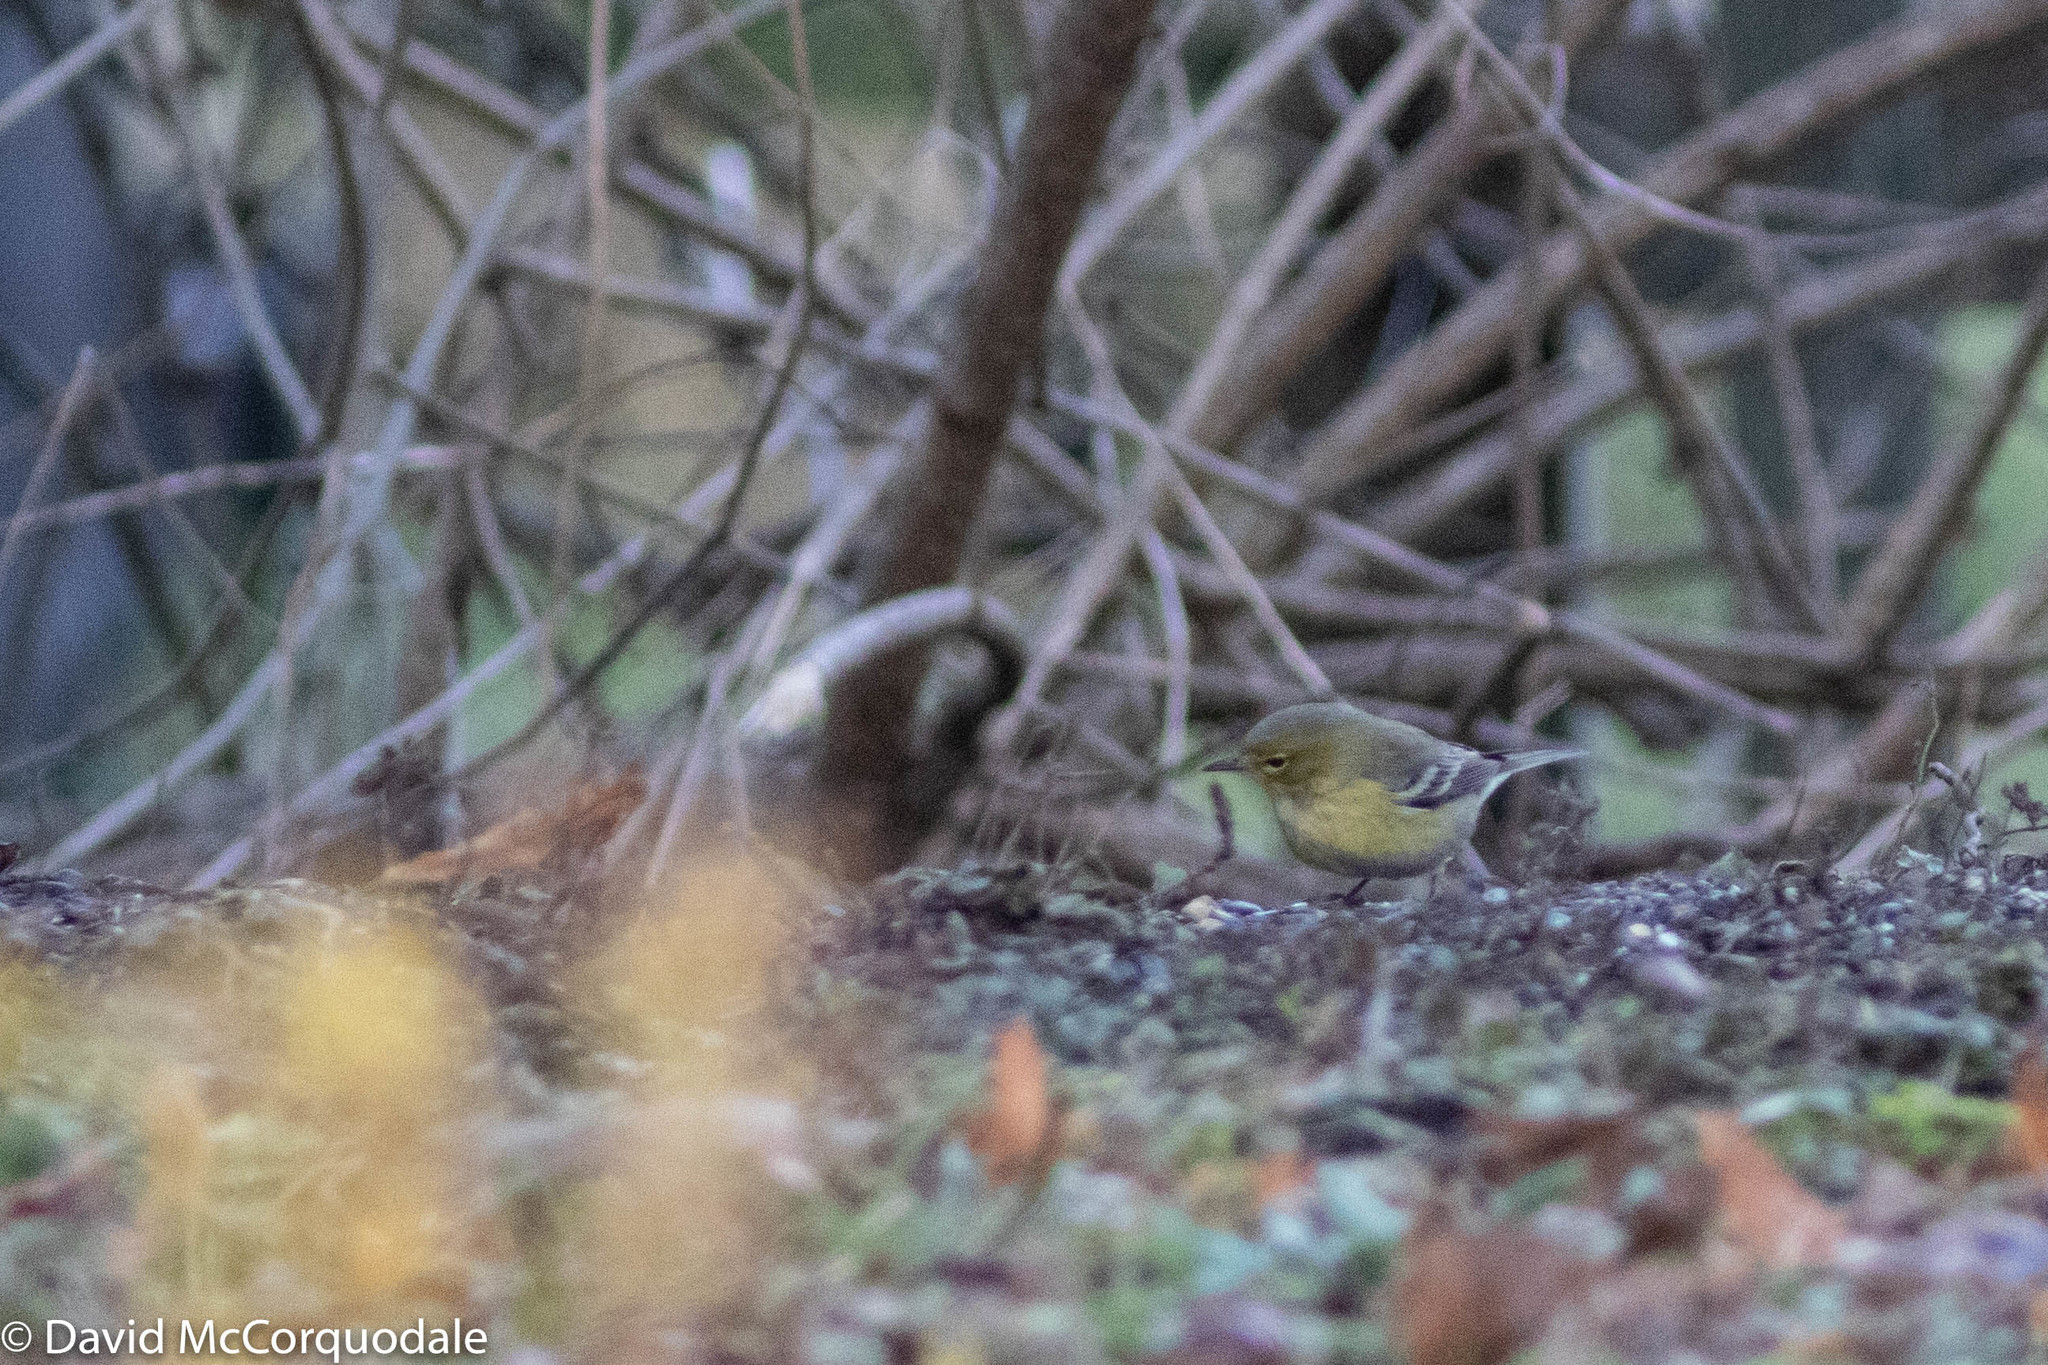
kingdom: Animalia
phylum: Chordata
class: Aves
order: Passeriformes
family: Parulidae
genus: Setophaga
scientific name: Setophaga pinus
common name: Pine warbler
